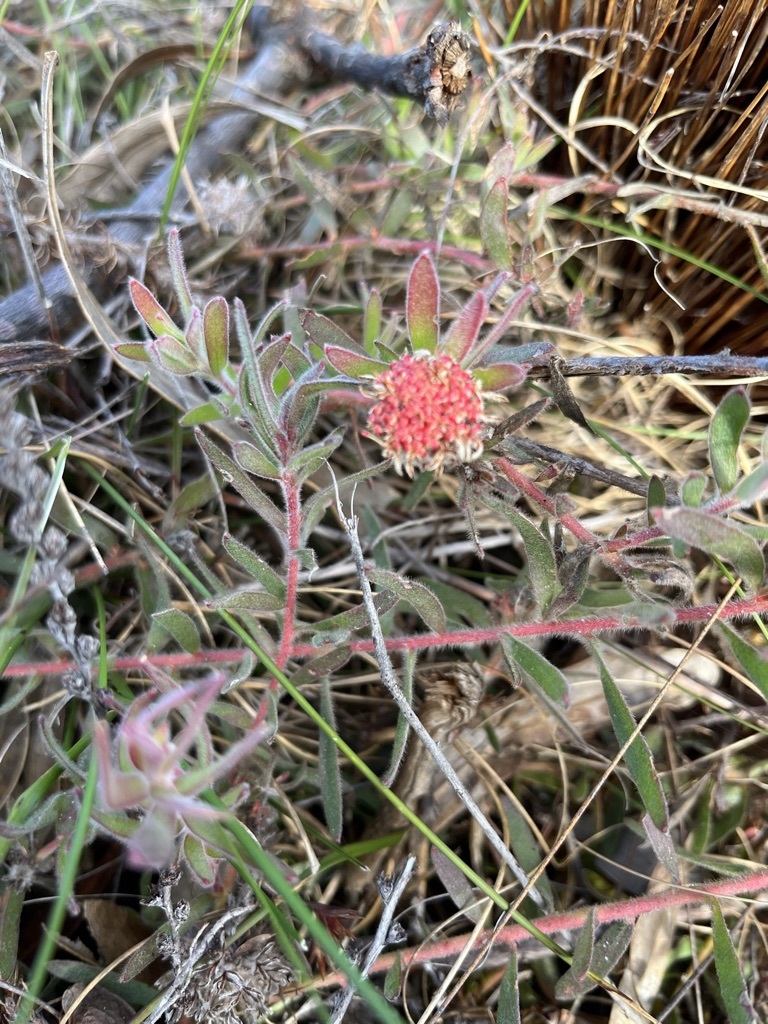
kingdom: Plantae
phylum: Tracheophyta
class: Magnoliopsida
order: Proteales
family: Proteaceae
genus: Leucospermum
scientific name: Leucospermum pedunculatum
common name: White-trailing pincushion
